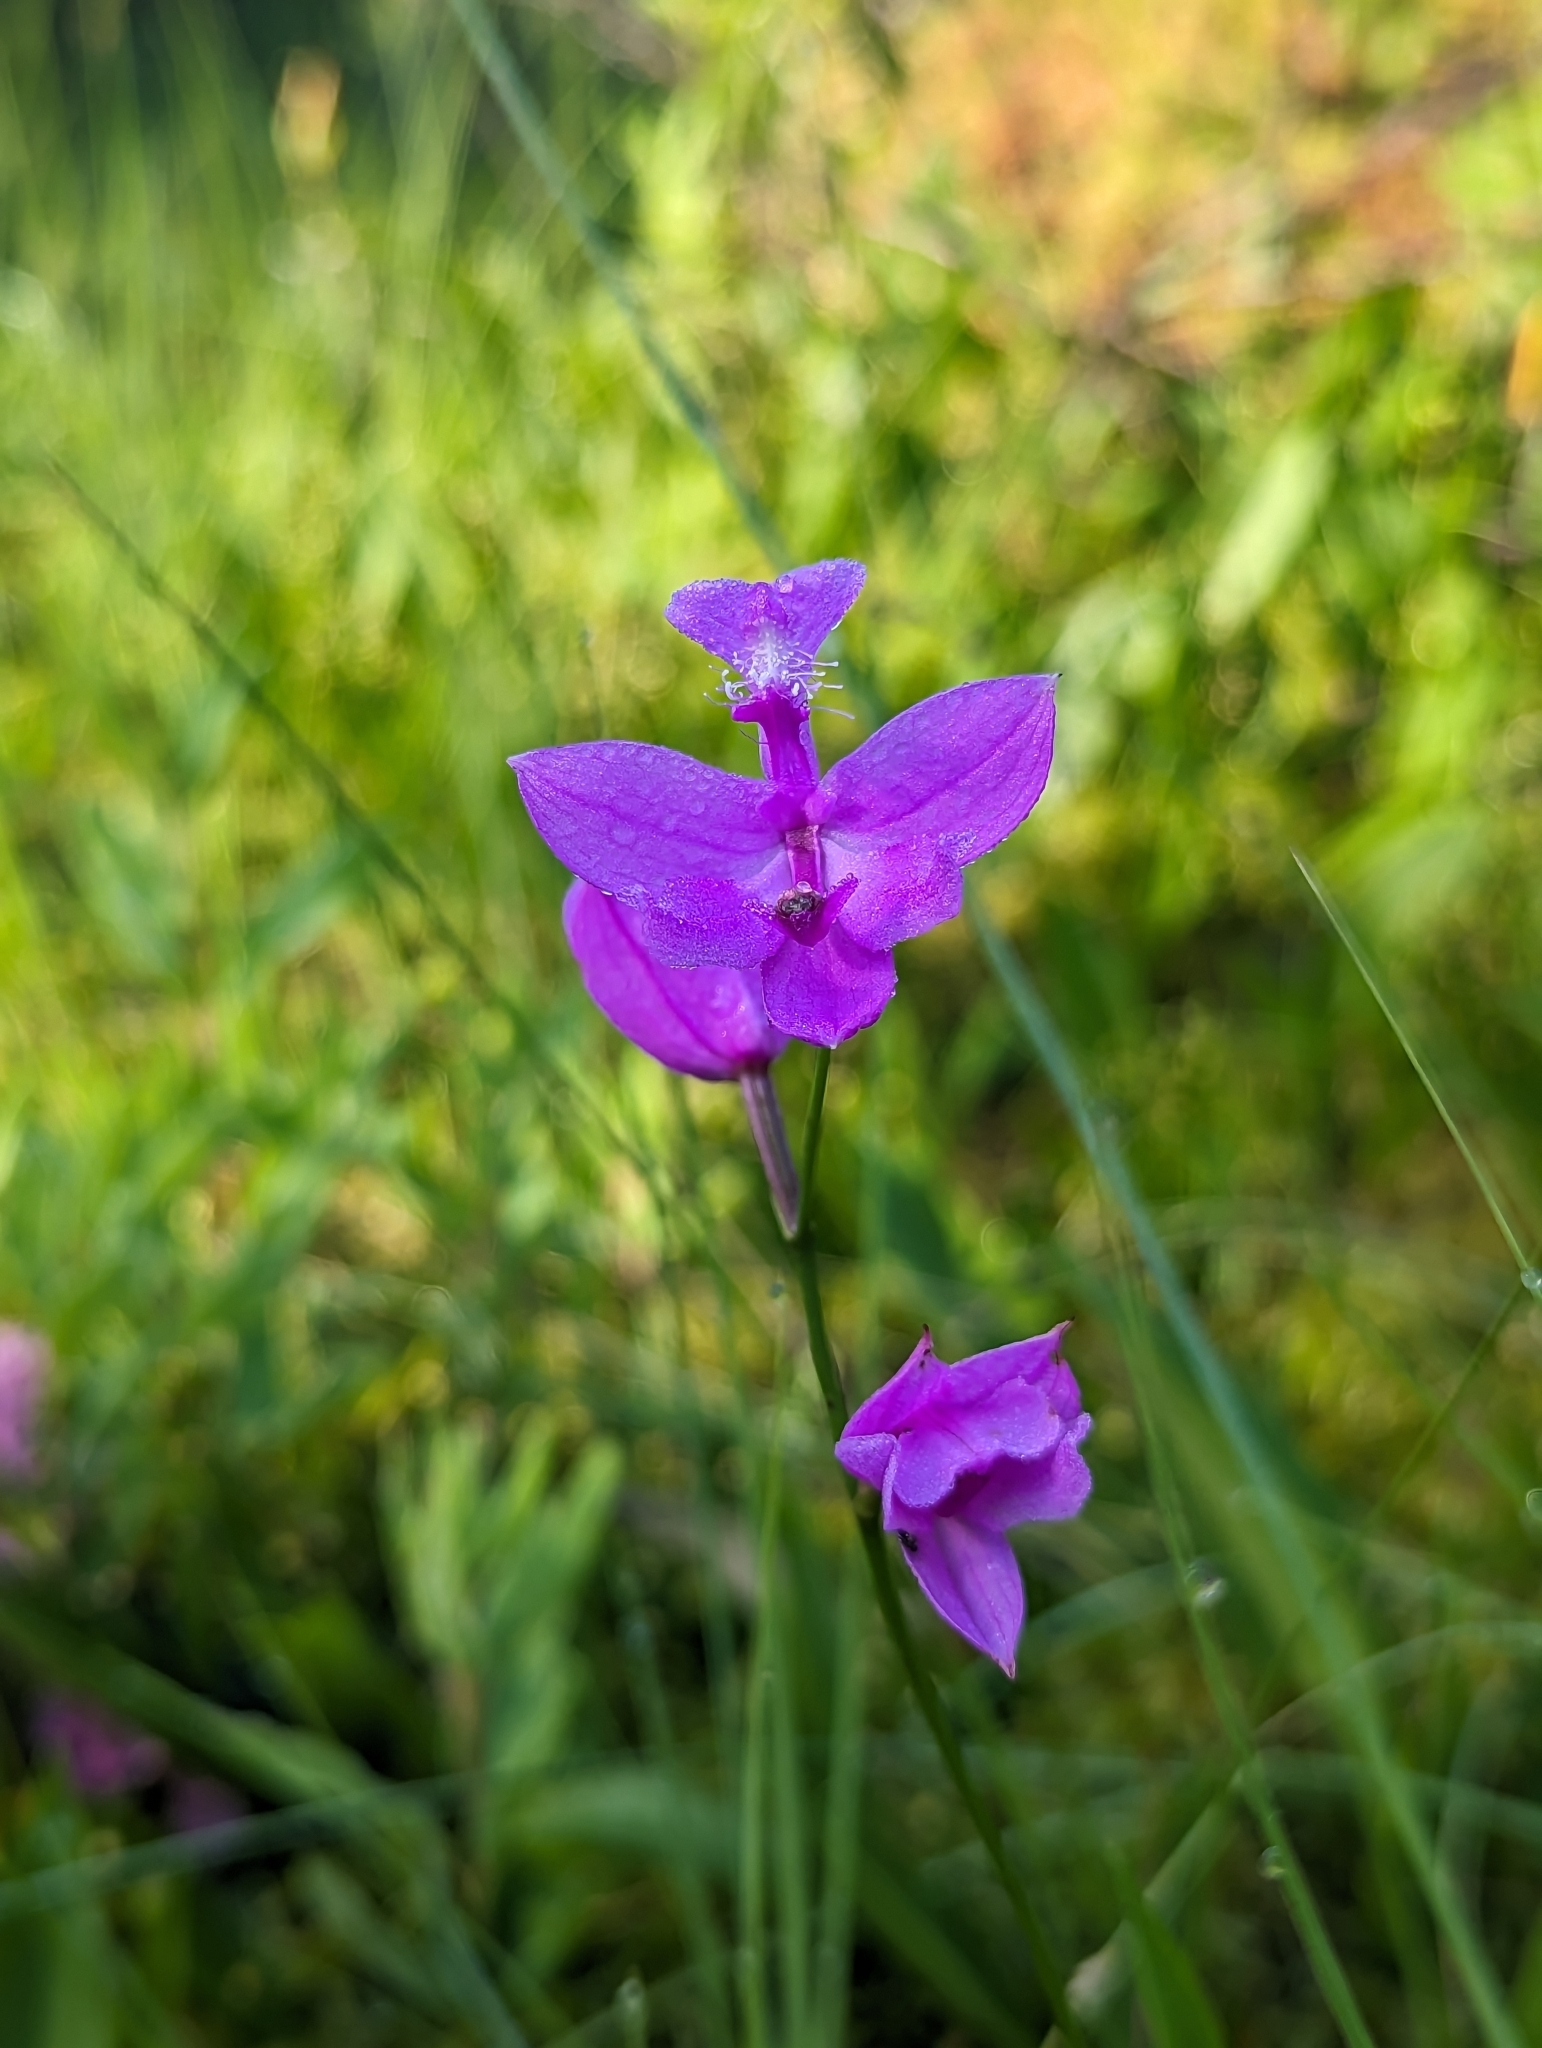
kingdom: Plantae
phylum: Tracheophyta
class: Liliopsida
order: Asparagales
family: Orchidaceae
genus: Calopogon
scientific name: Calopogon tuberosus
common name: Grass-pink
